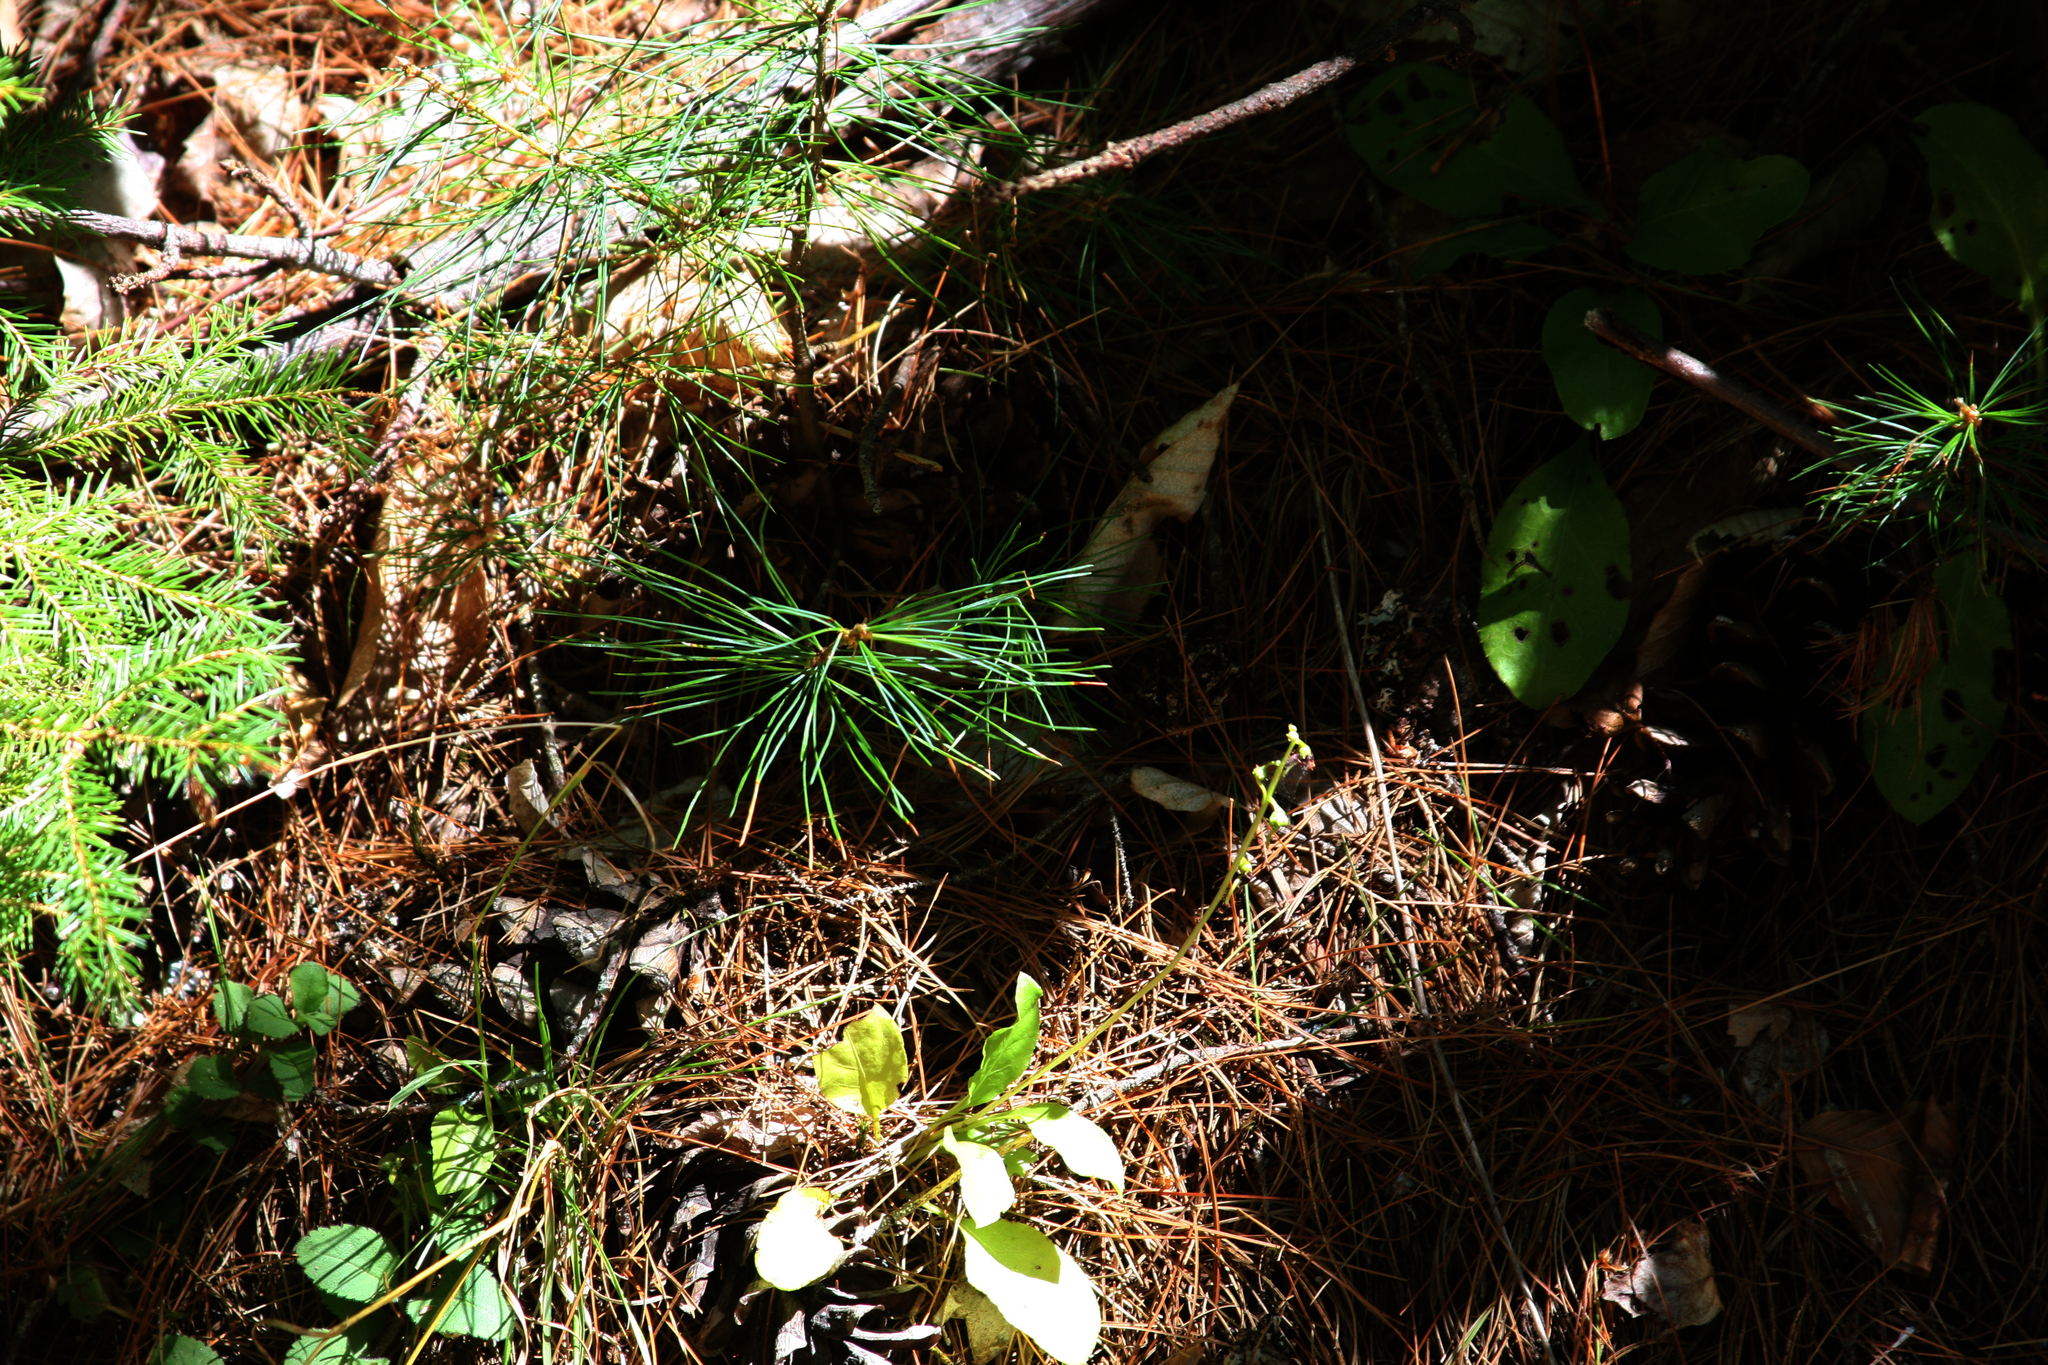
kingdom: Plantae
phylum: Tracheophyta
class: Pinopsida
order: Pinales
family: Pinaceae
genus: Pinus
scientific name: Pinus strobus
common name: Weymouth pine
